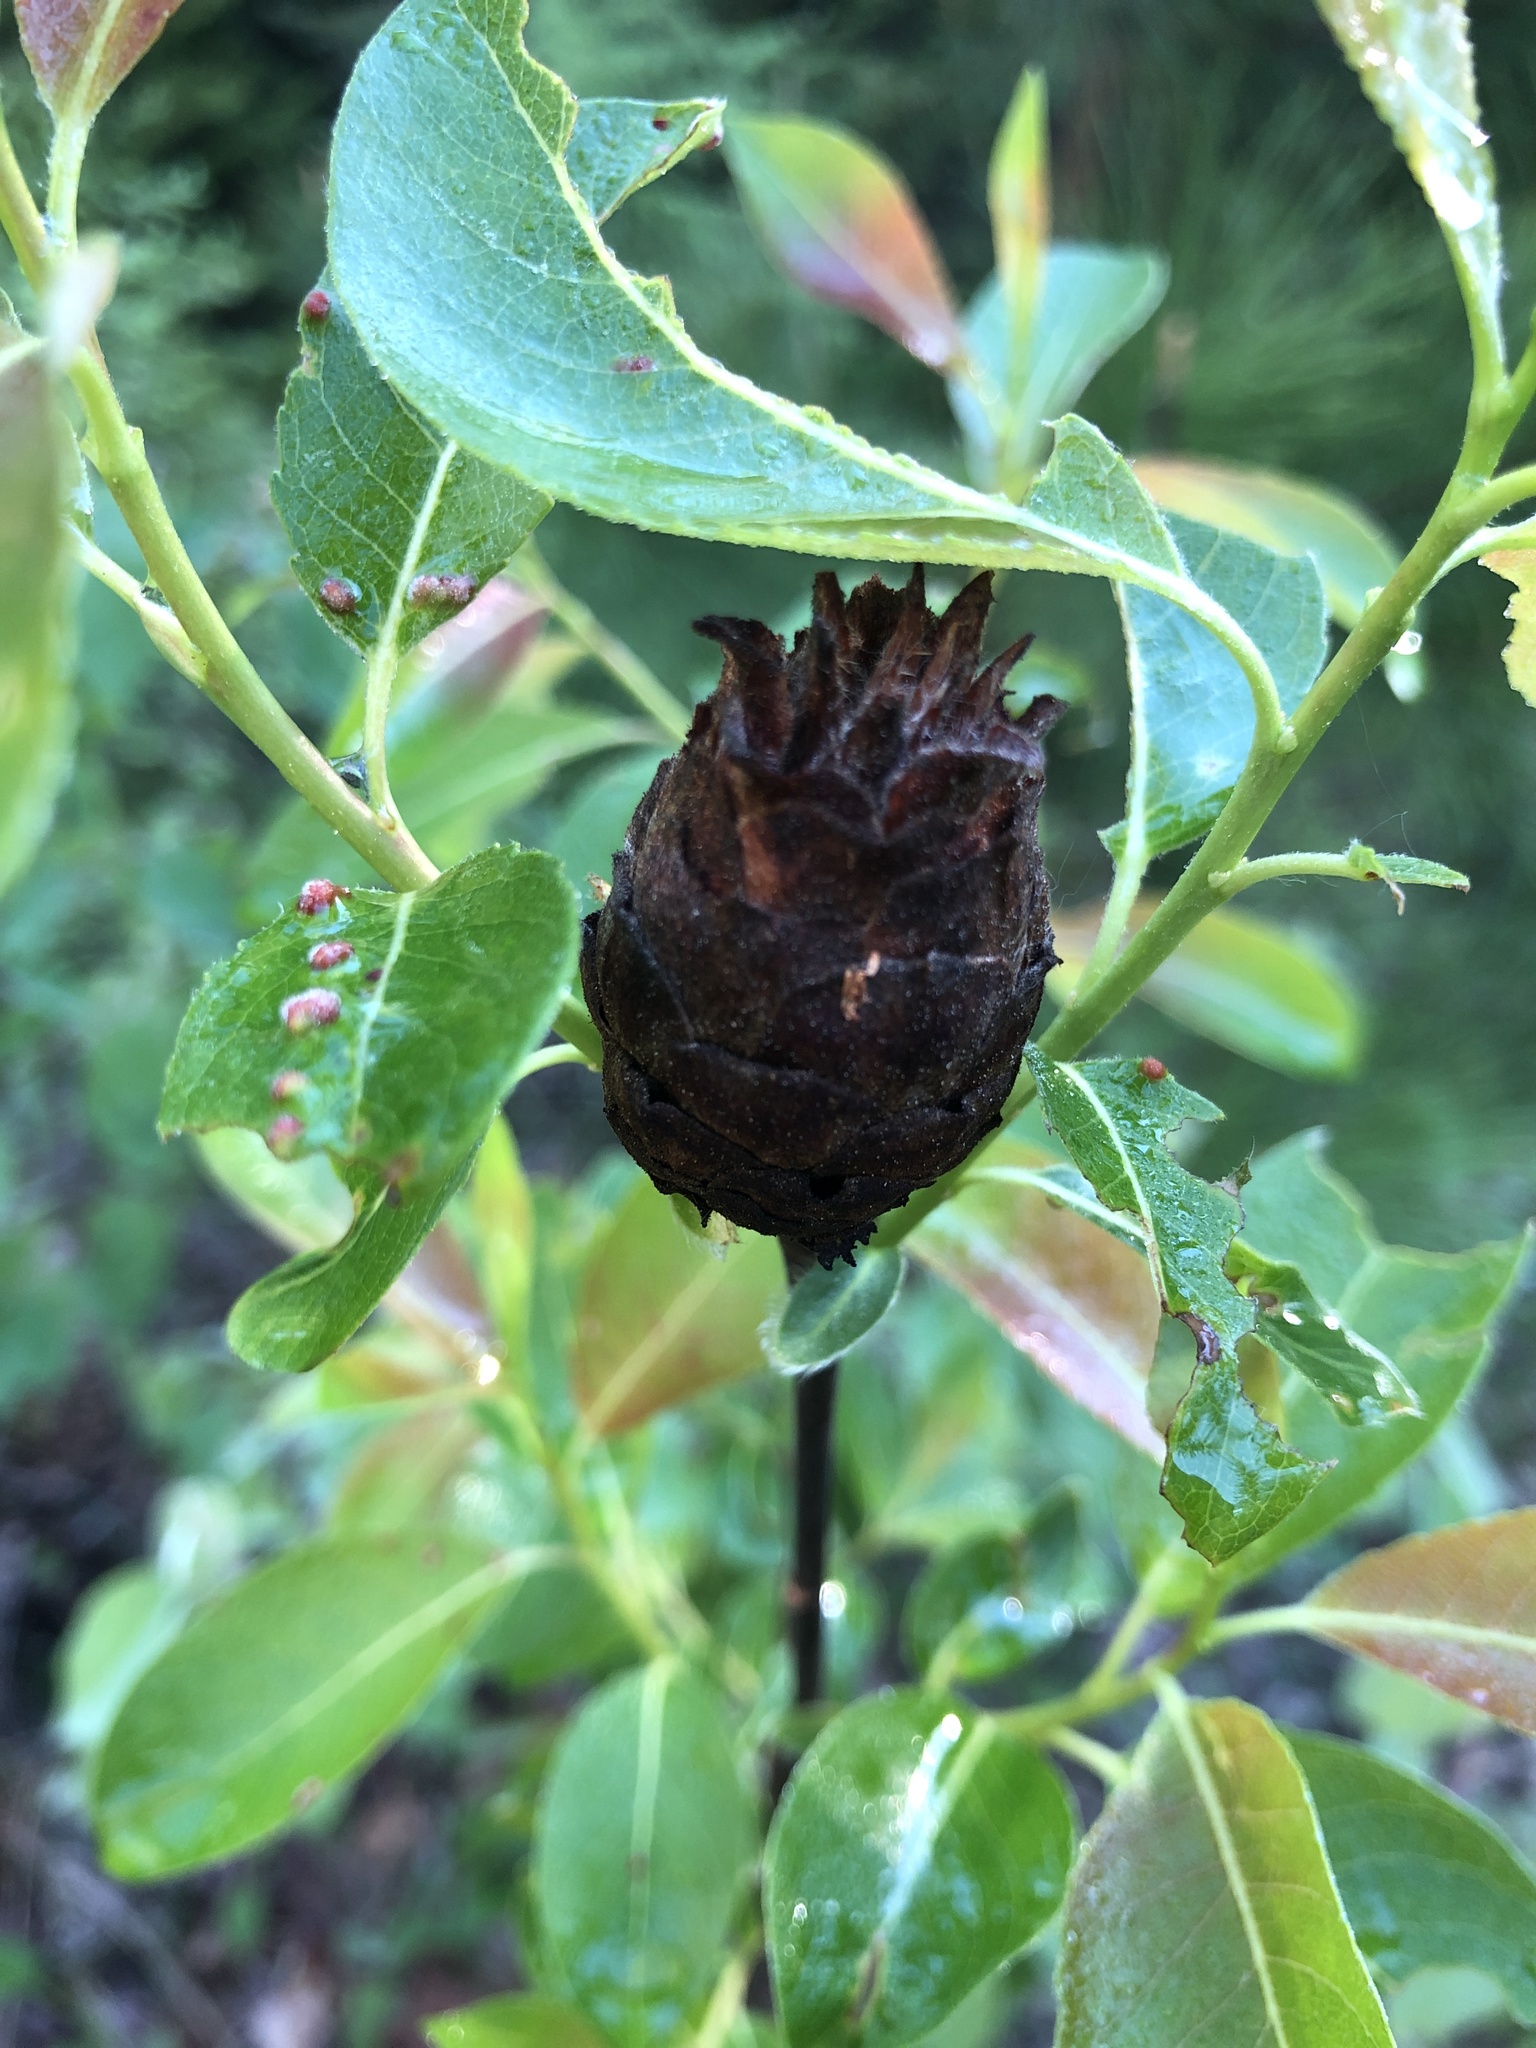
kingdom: Animalia
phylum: Arthropoda
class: Insecta
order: Diptera
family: Cecidomyiidae
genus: Rabdophaga
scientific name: Rabdophaga strobiloides
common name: Willow pinecone gall midge
